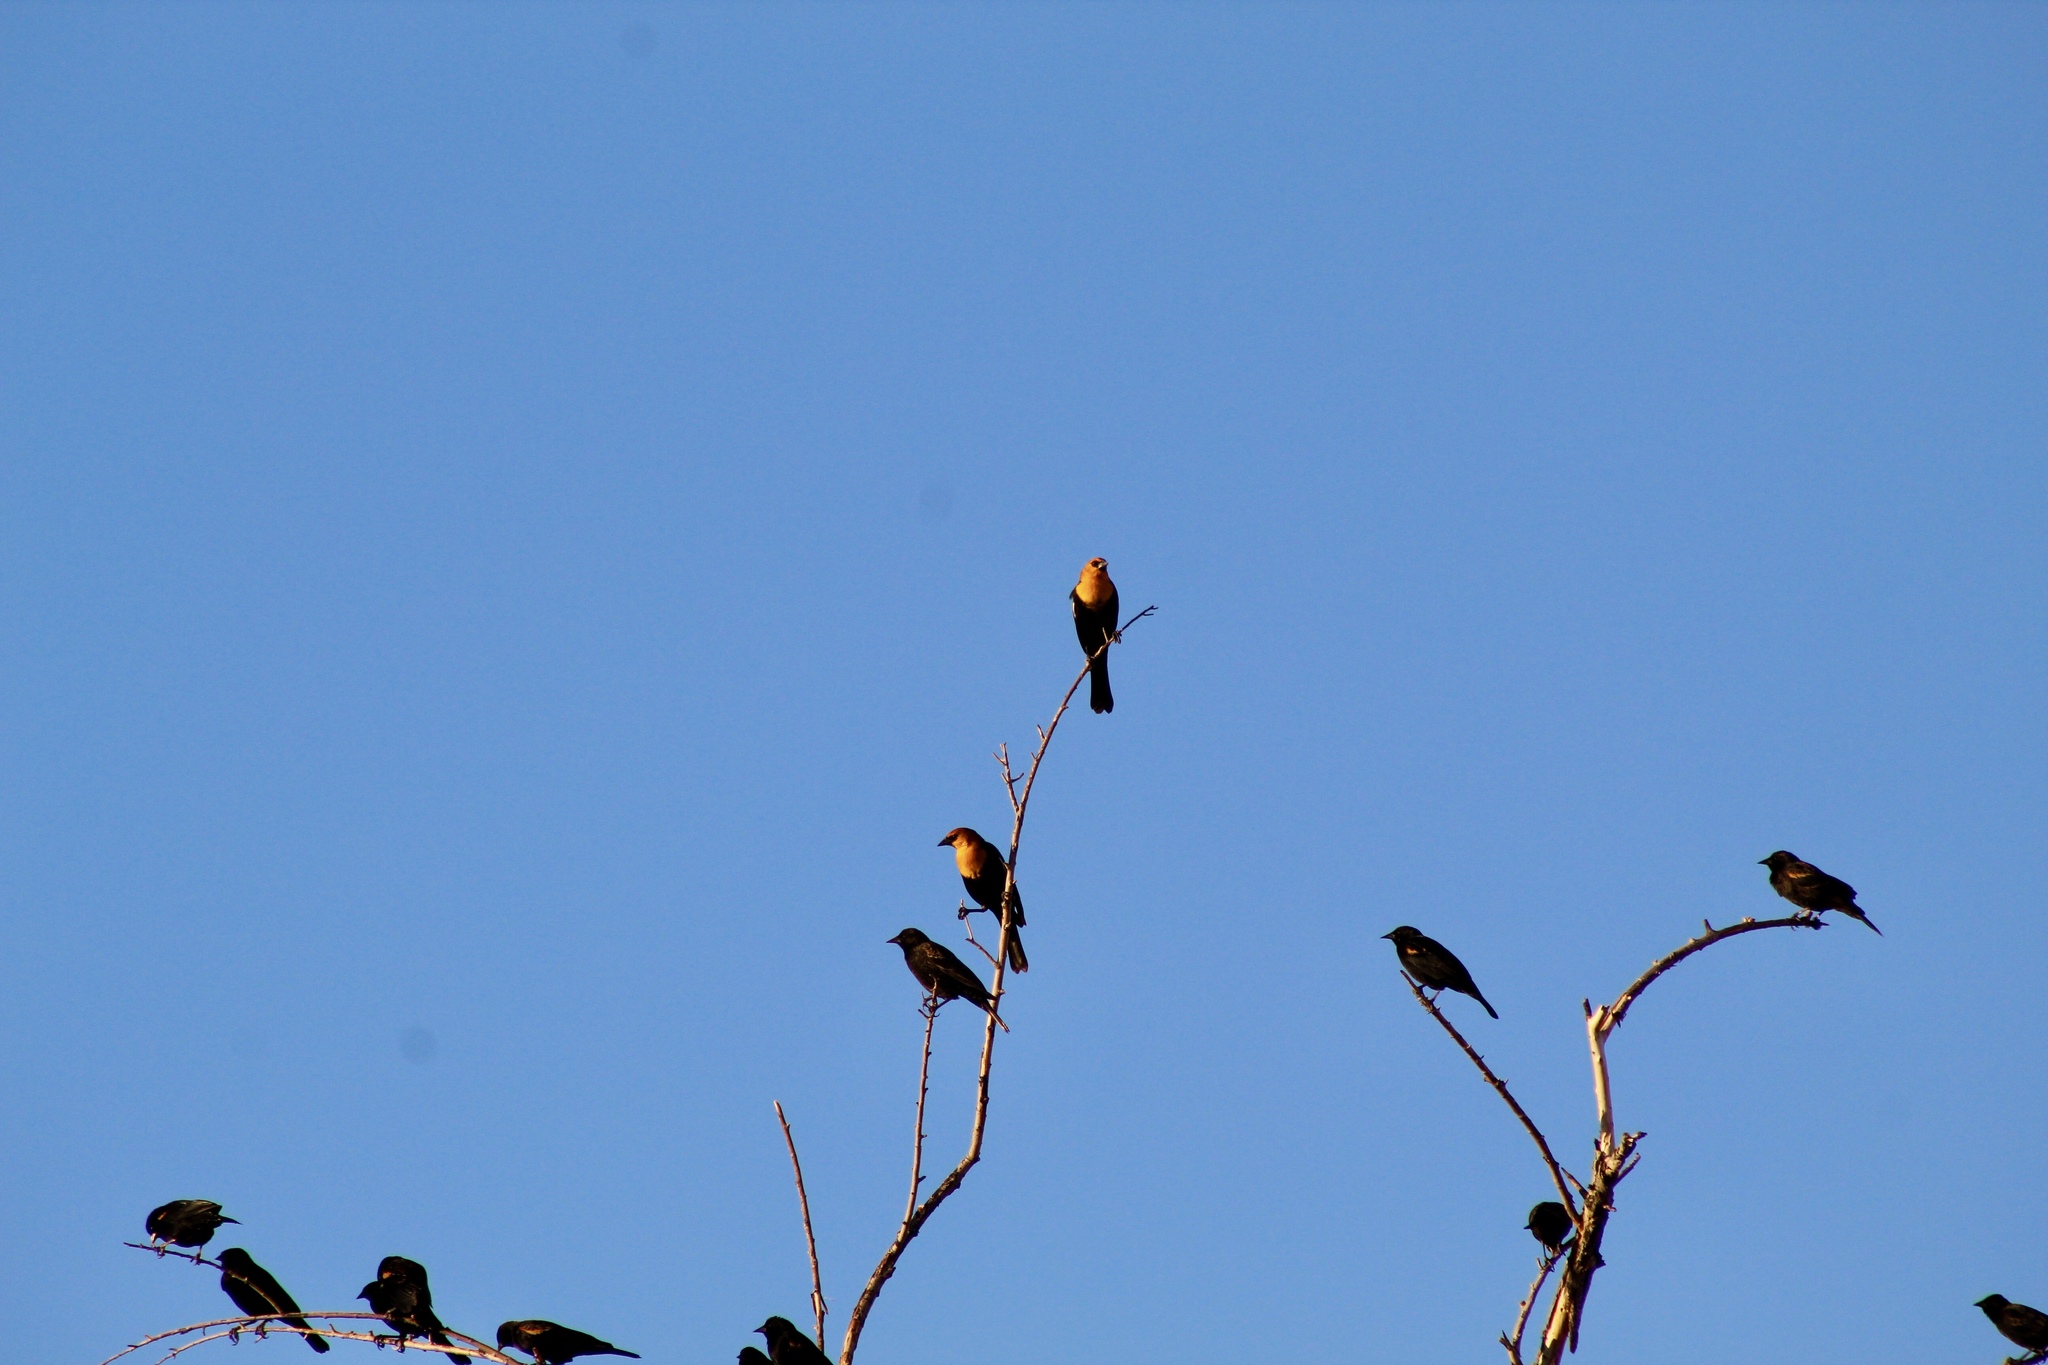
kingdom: Animalia
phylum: Chordata
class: Aves
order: Passeriformes
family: Icteridae
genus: Xanthocephalus
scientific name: Xanthocephalus xanthocephalus
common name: Yellow-headed blackbird
